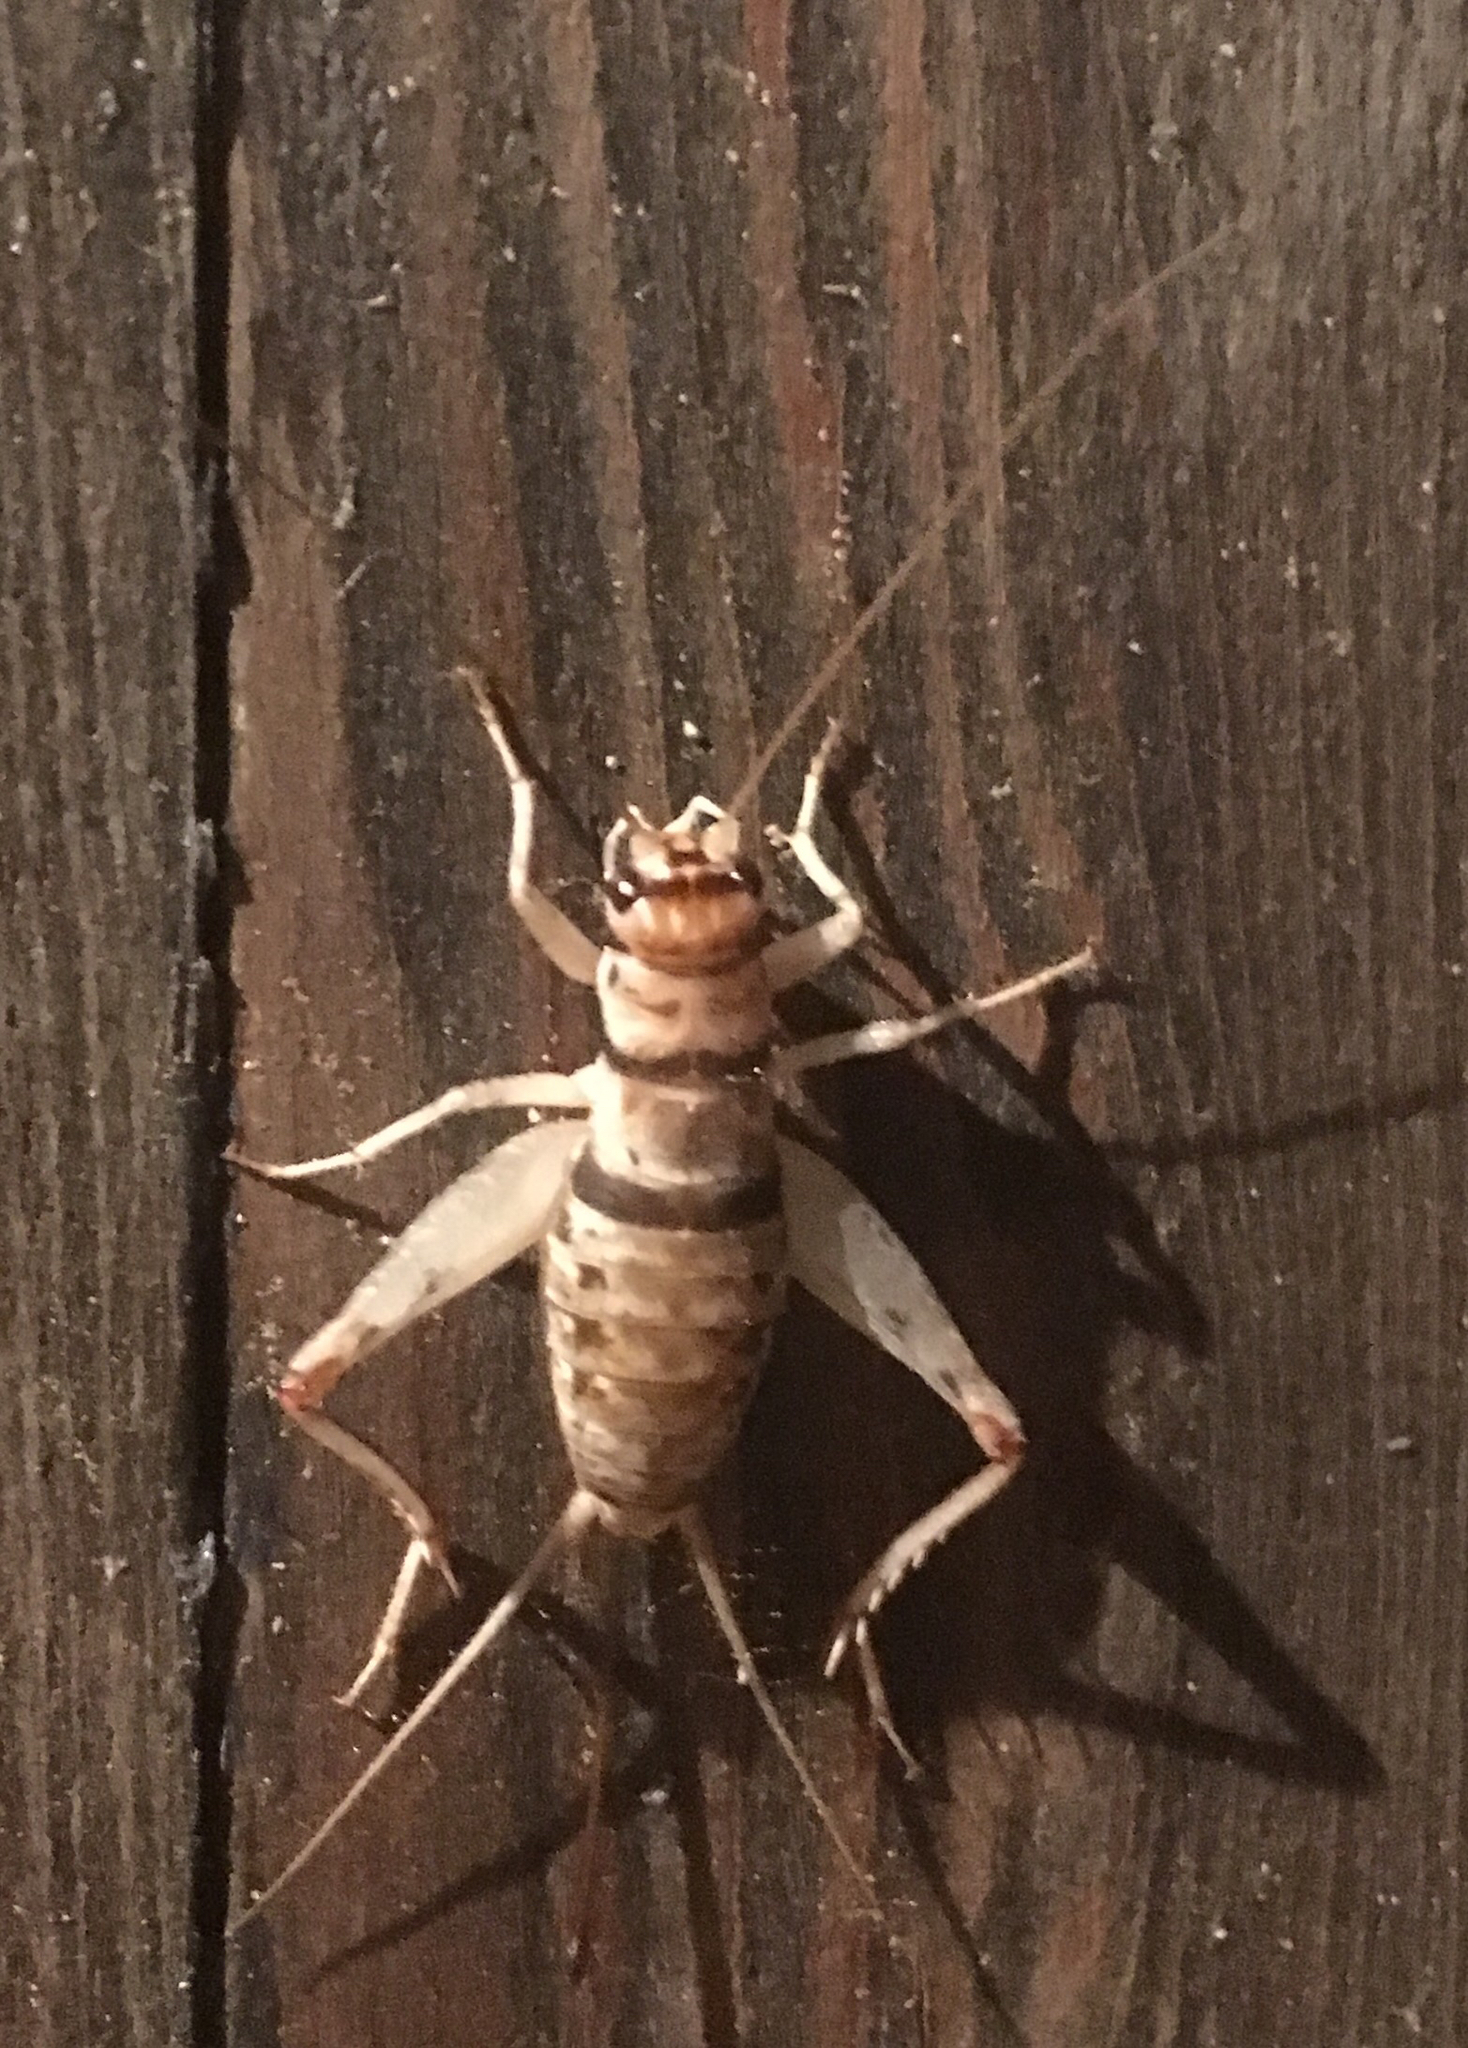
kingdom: Animalia
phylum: Arthropoda
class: Insecta
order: Orthoptera
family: Gryllidae
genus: Gryllodes
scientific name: Gryllodes sigillatus
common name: Tropical house cricket
